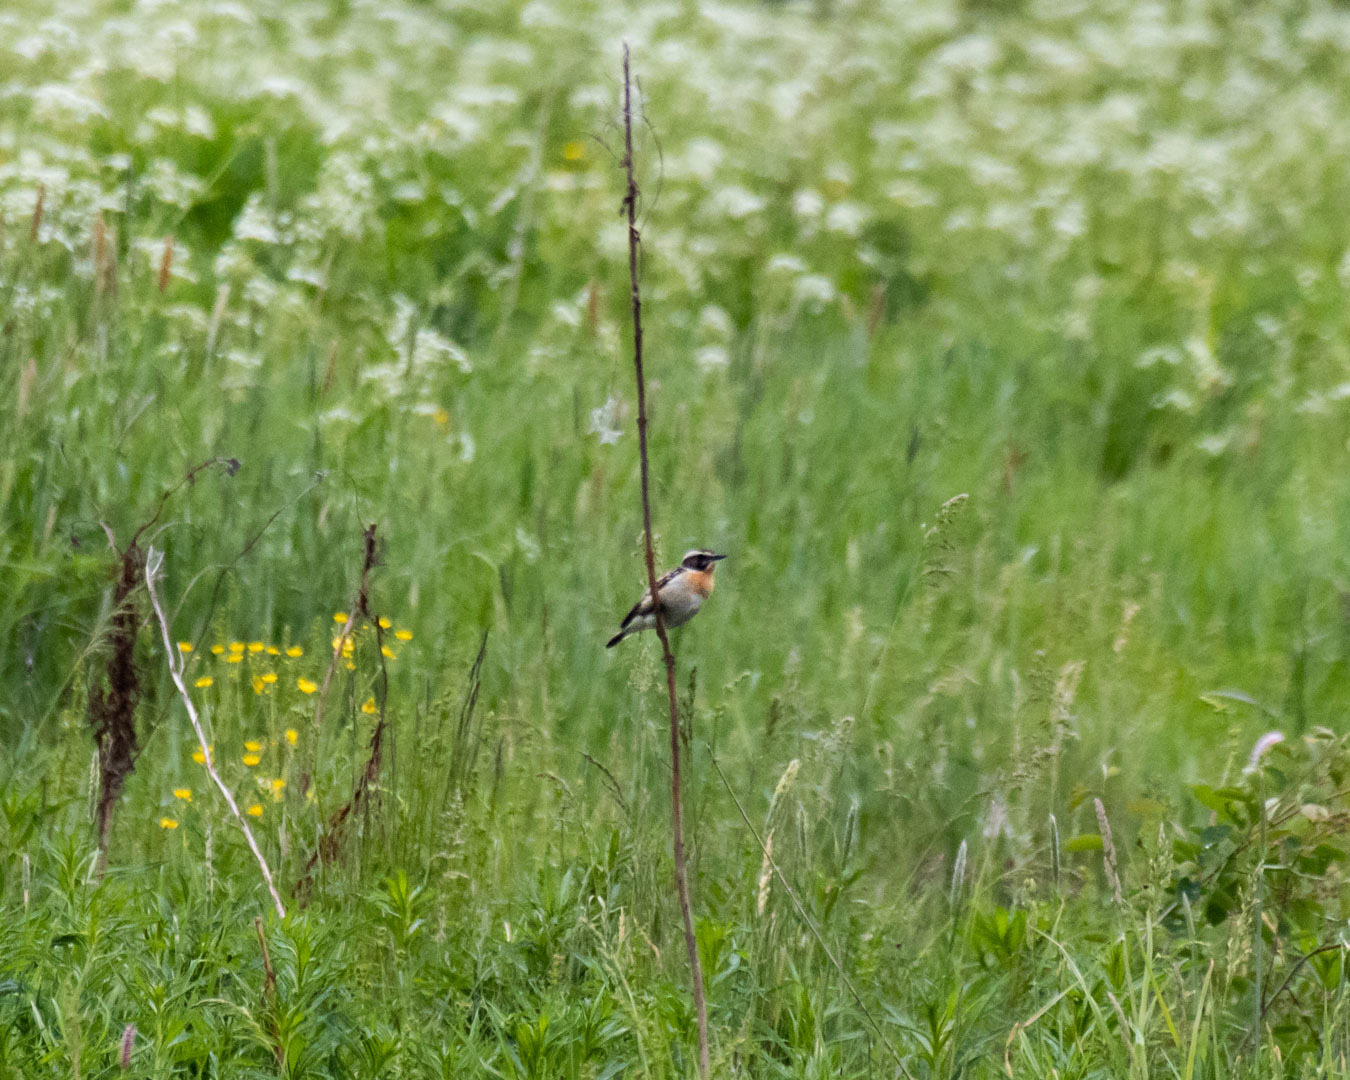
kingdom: Animalia
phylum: Chordata
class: Aves
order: Passeriformes
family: Muscicapidae
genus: Saxicola
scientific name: Saxicola rubetra
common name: Whinchat
